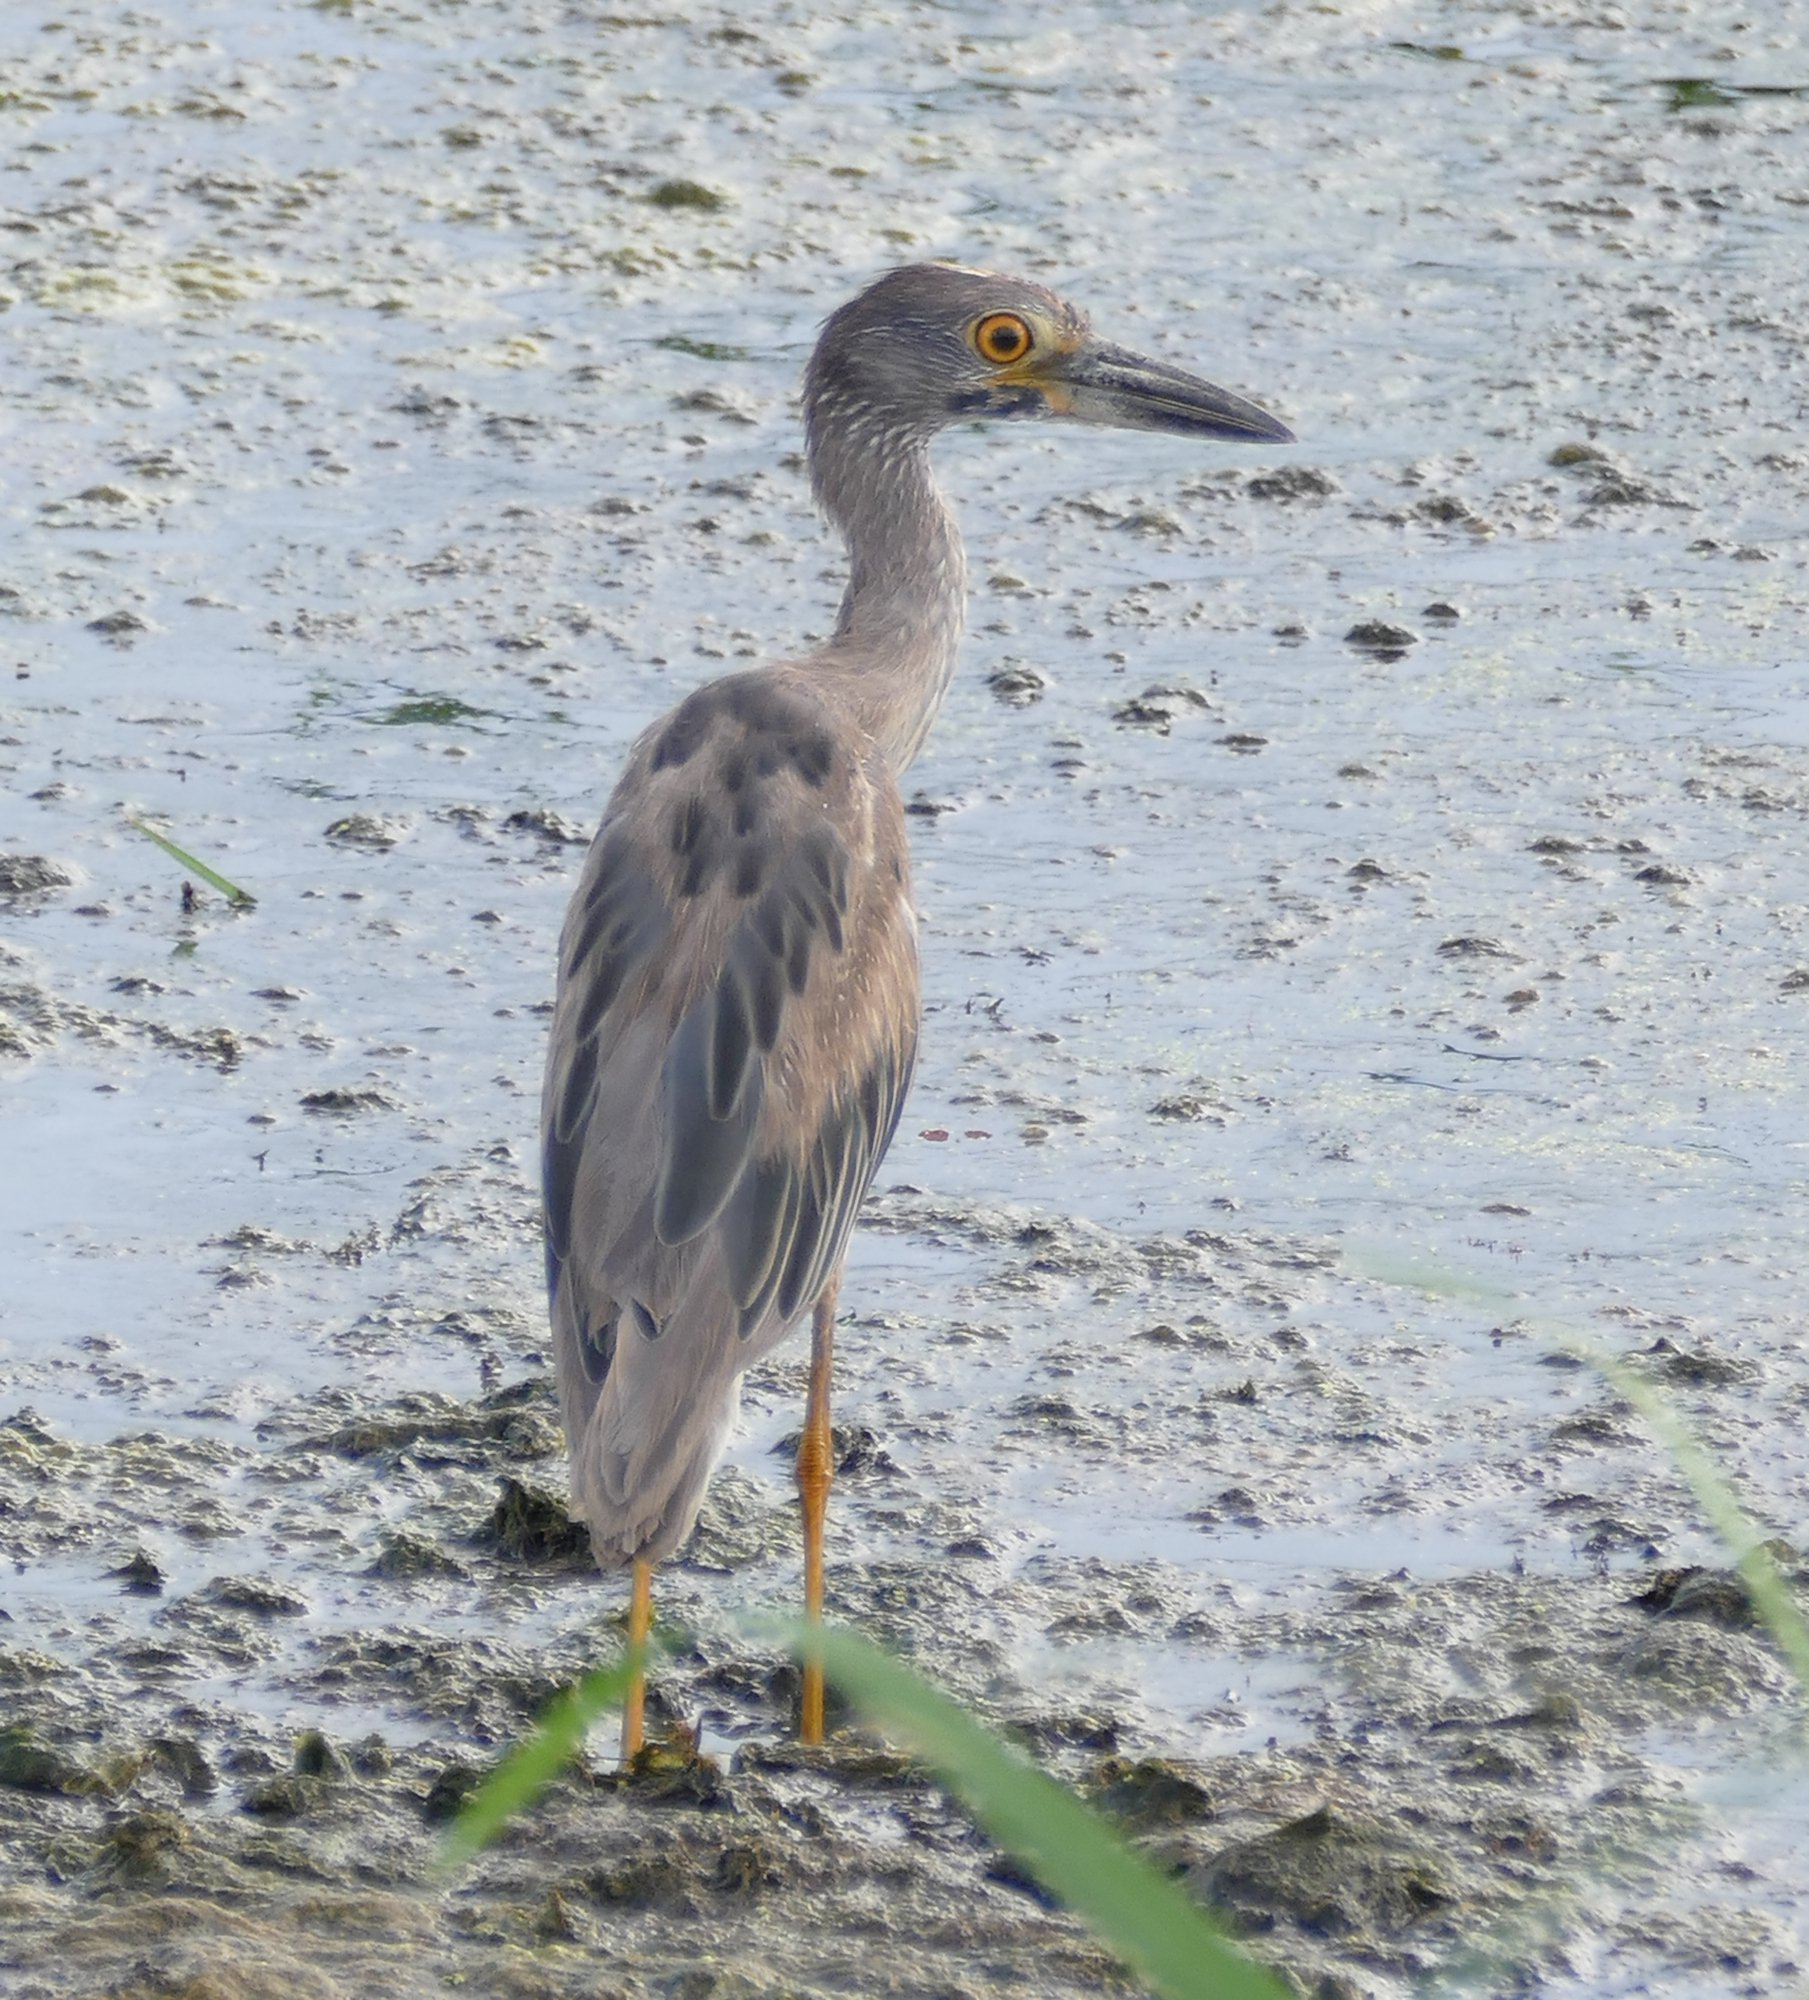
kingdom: Animalia
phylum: Chordata
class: Aves
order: Pelecaniformes
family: Ardeidae
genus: Nyctanassa
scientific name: Nyctanassa violacea
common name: Yellow-crowned night heron
